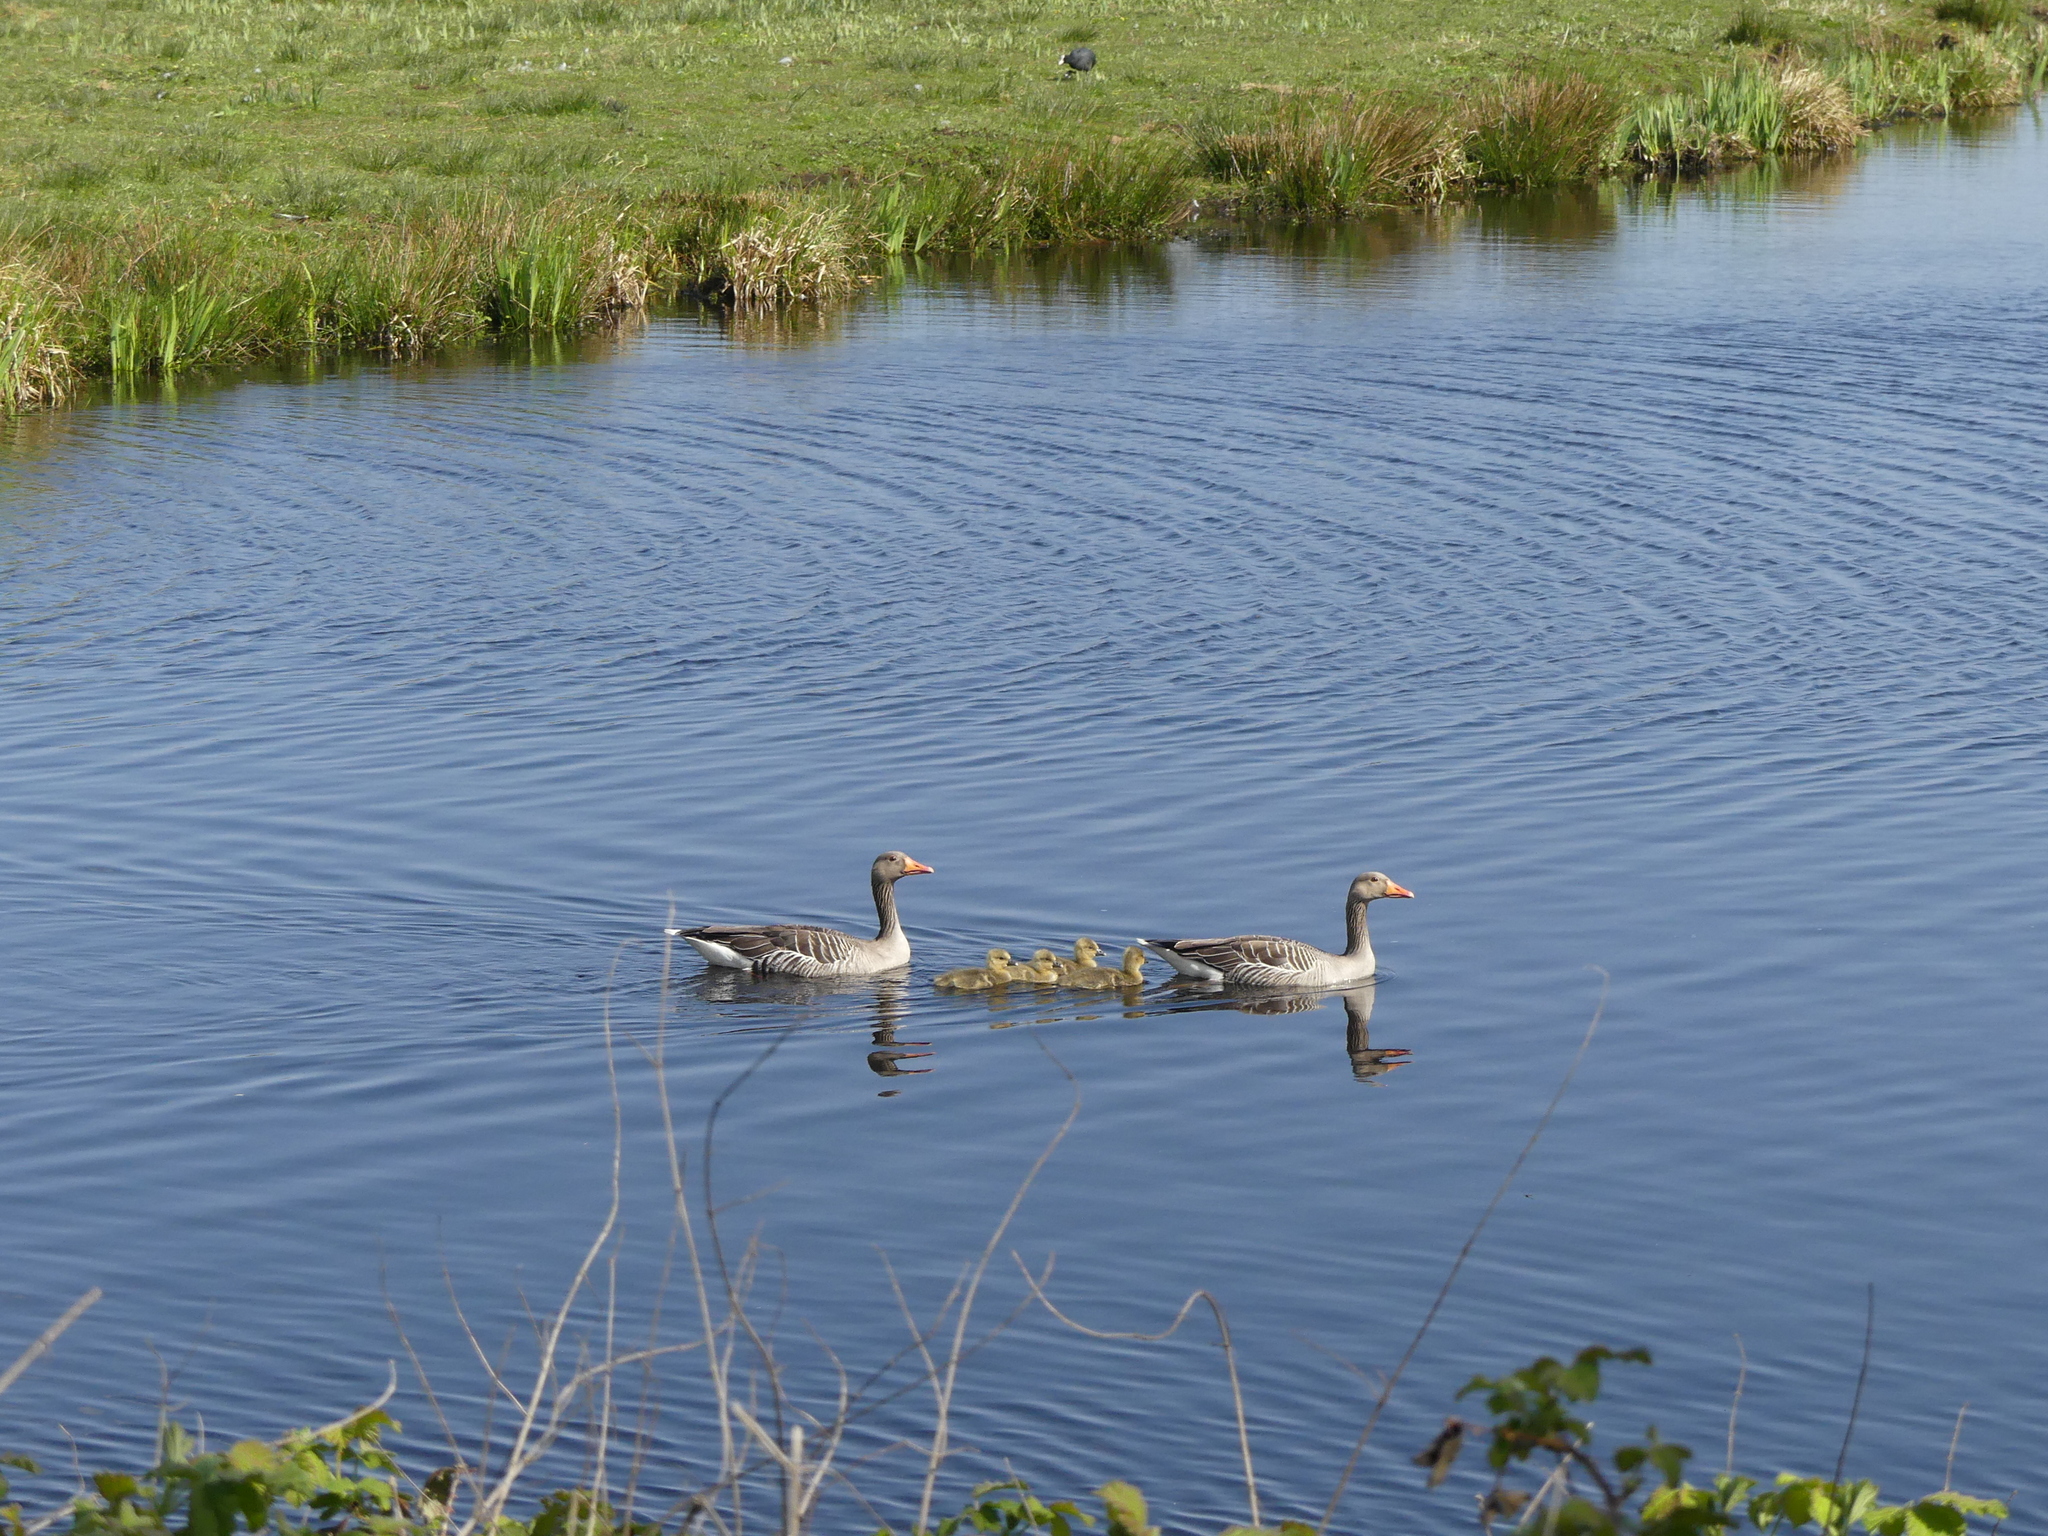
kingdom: Animalia
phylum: Chordata
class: Aves
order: Anseriformes
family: Anatidae
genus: Anser
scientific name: Anser anser
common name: Greylag goose
